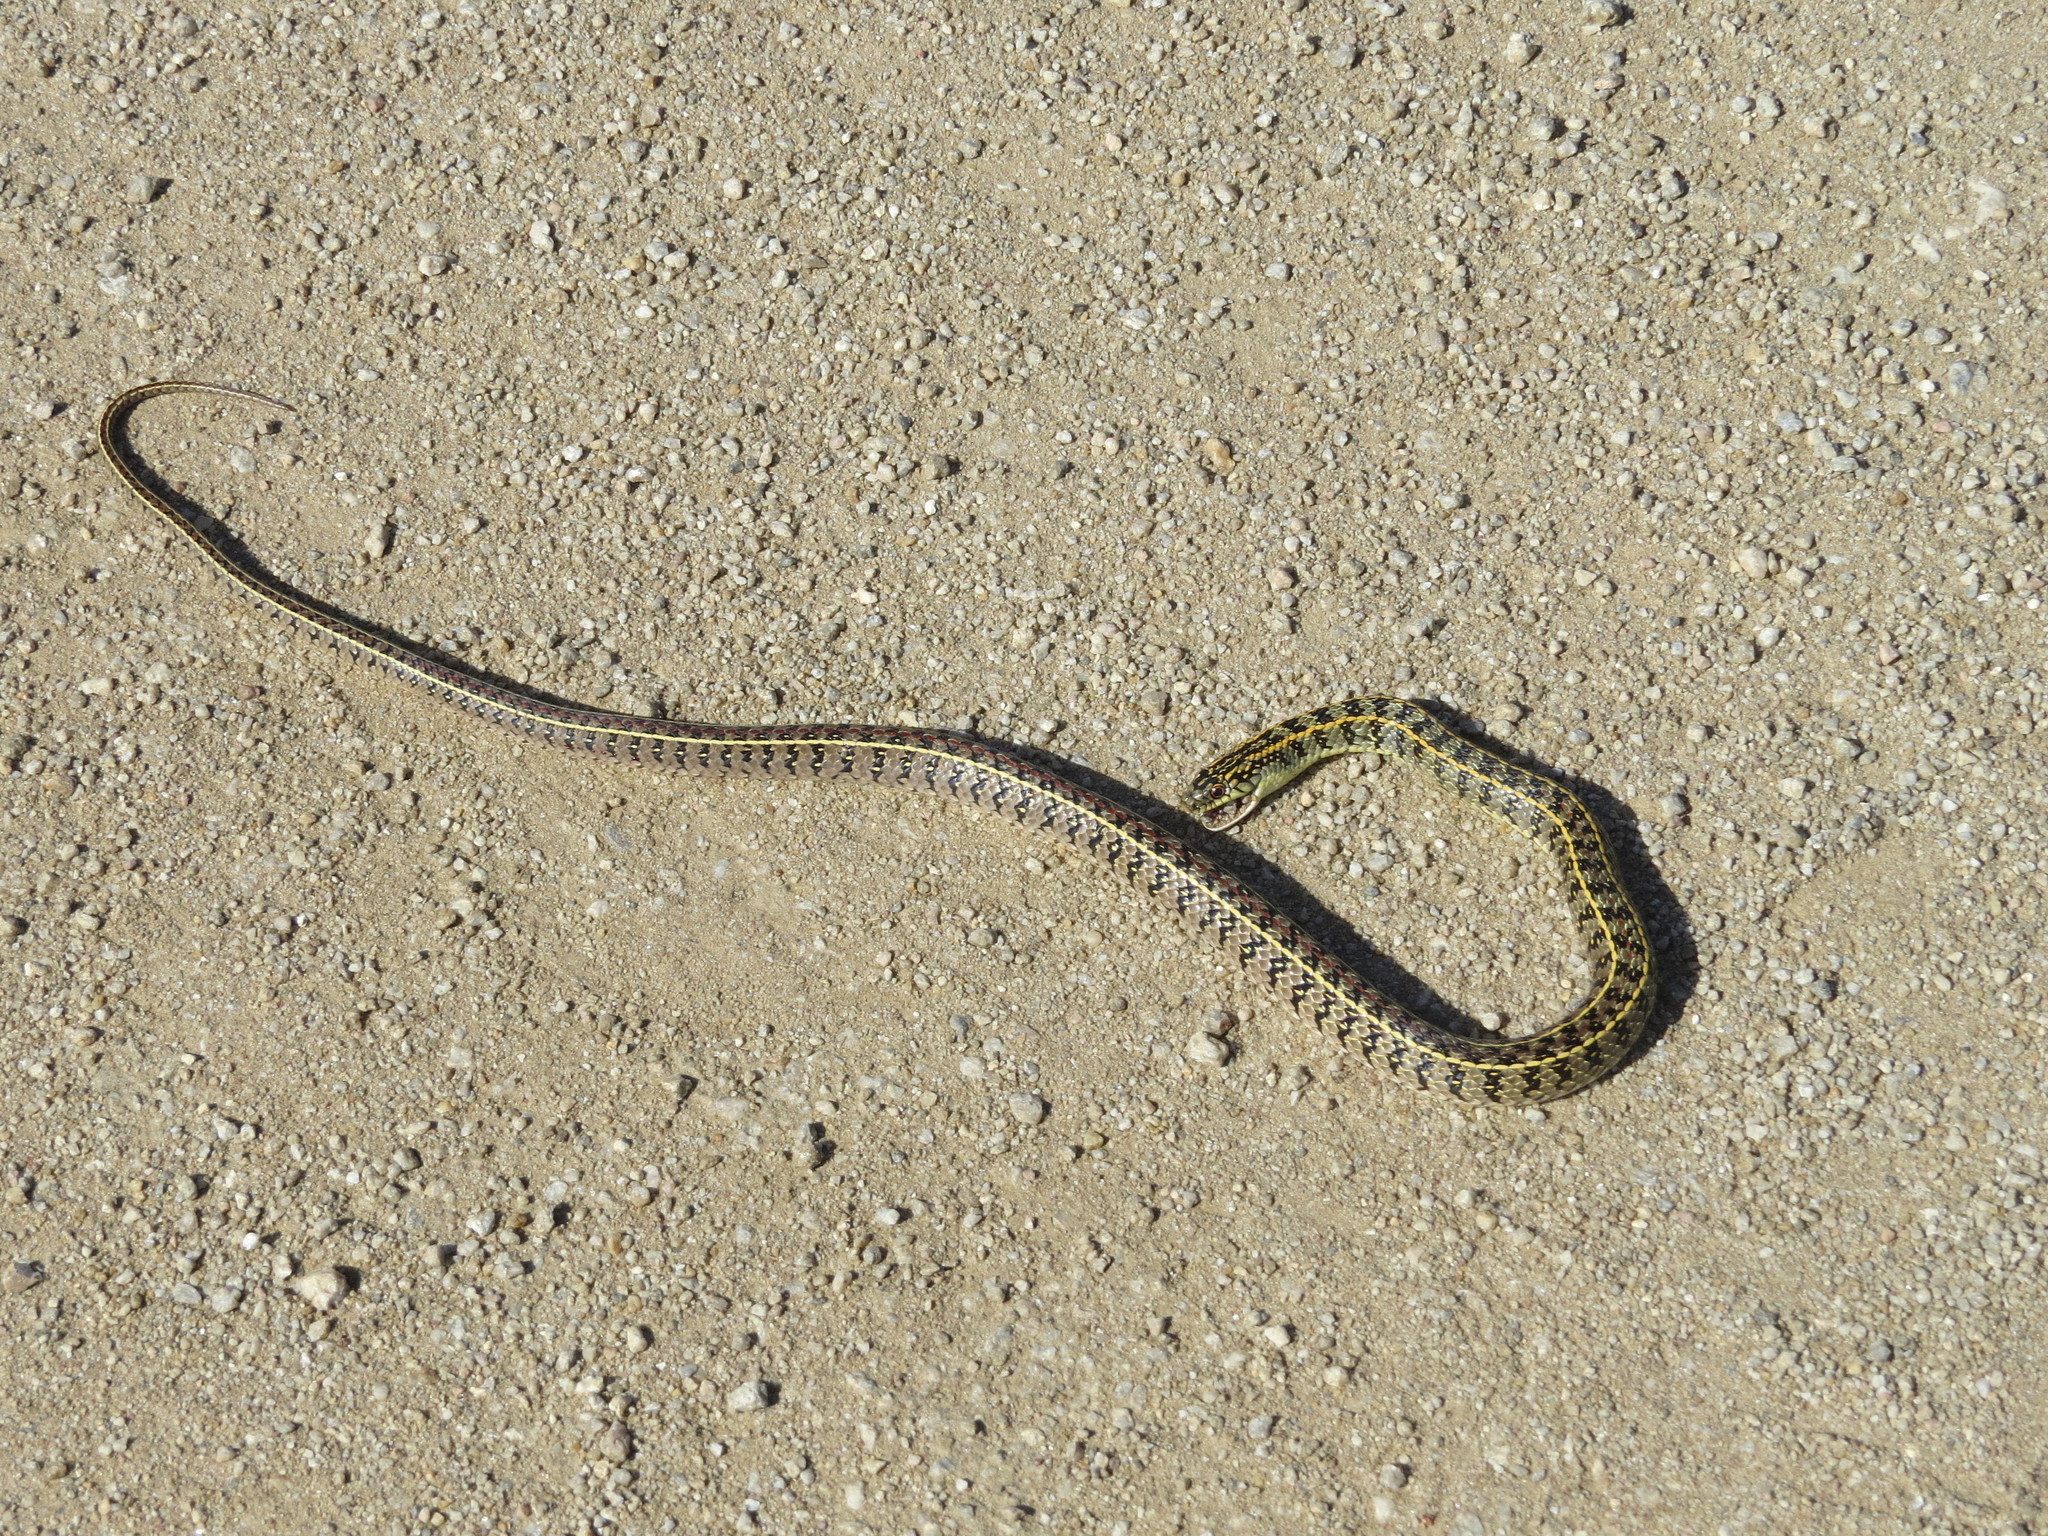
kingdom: Animalia
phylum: Chordata
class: Squamata
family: Colubridae
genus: Lygophis
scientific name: Lygophis anomalus
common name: English common name not available
